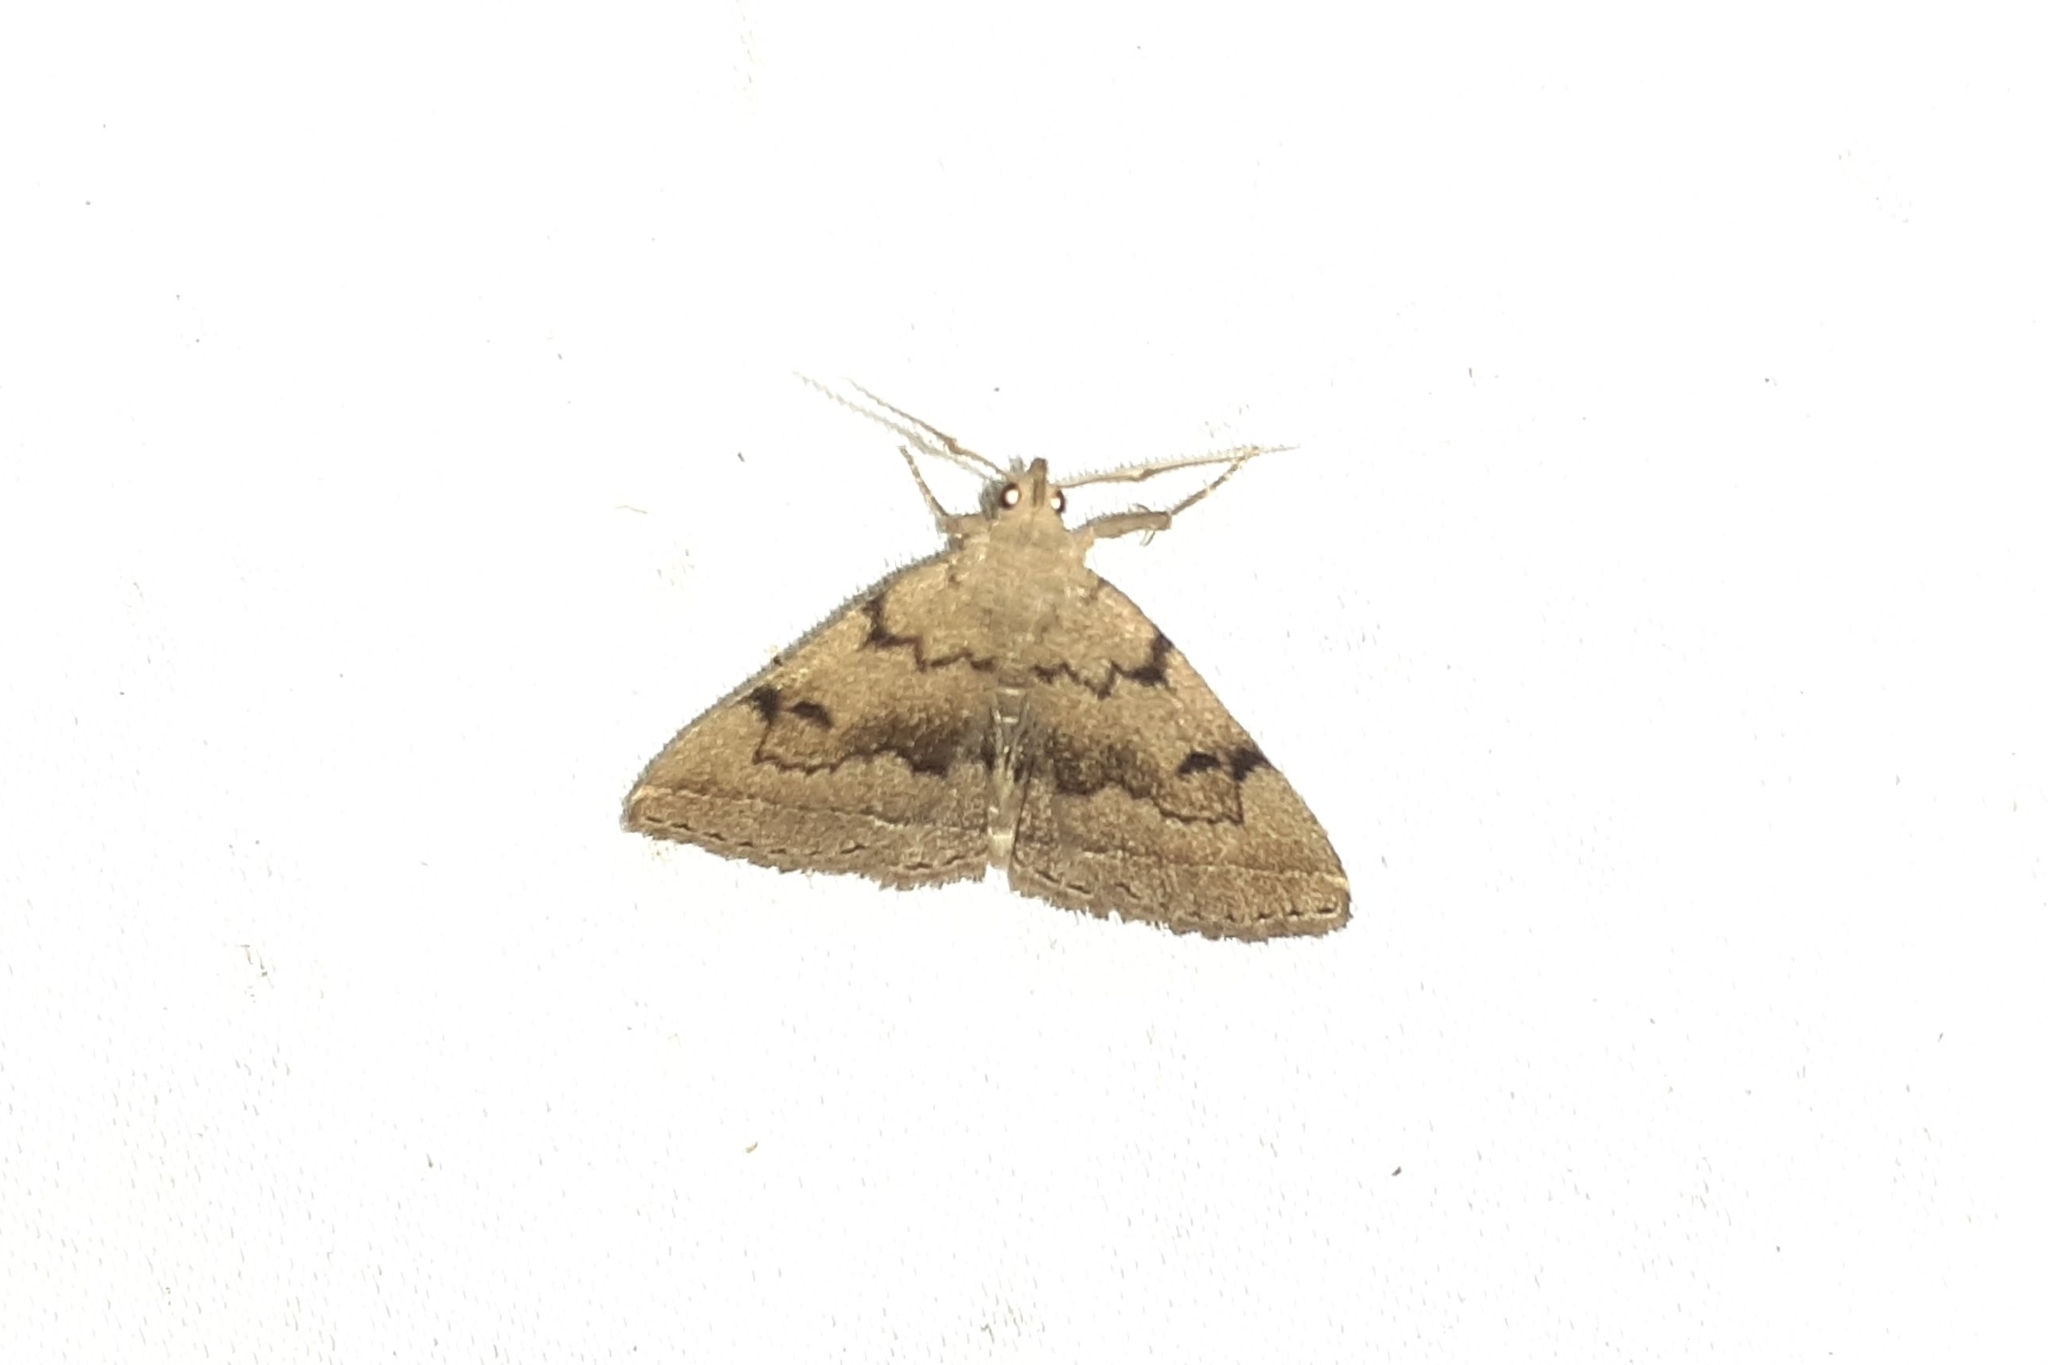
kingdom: Animalia
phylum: Arthropoda
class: Insecta
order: Lepidoptera
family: Erebidae
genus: Zanclognatha
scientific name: Zanclognatha dentata
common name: Toothed fan-foot
